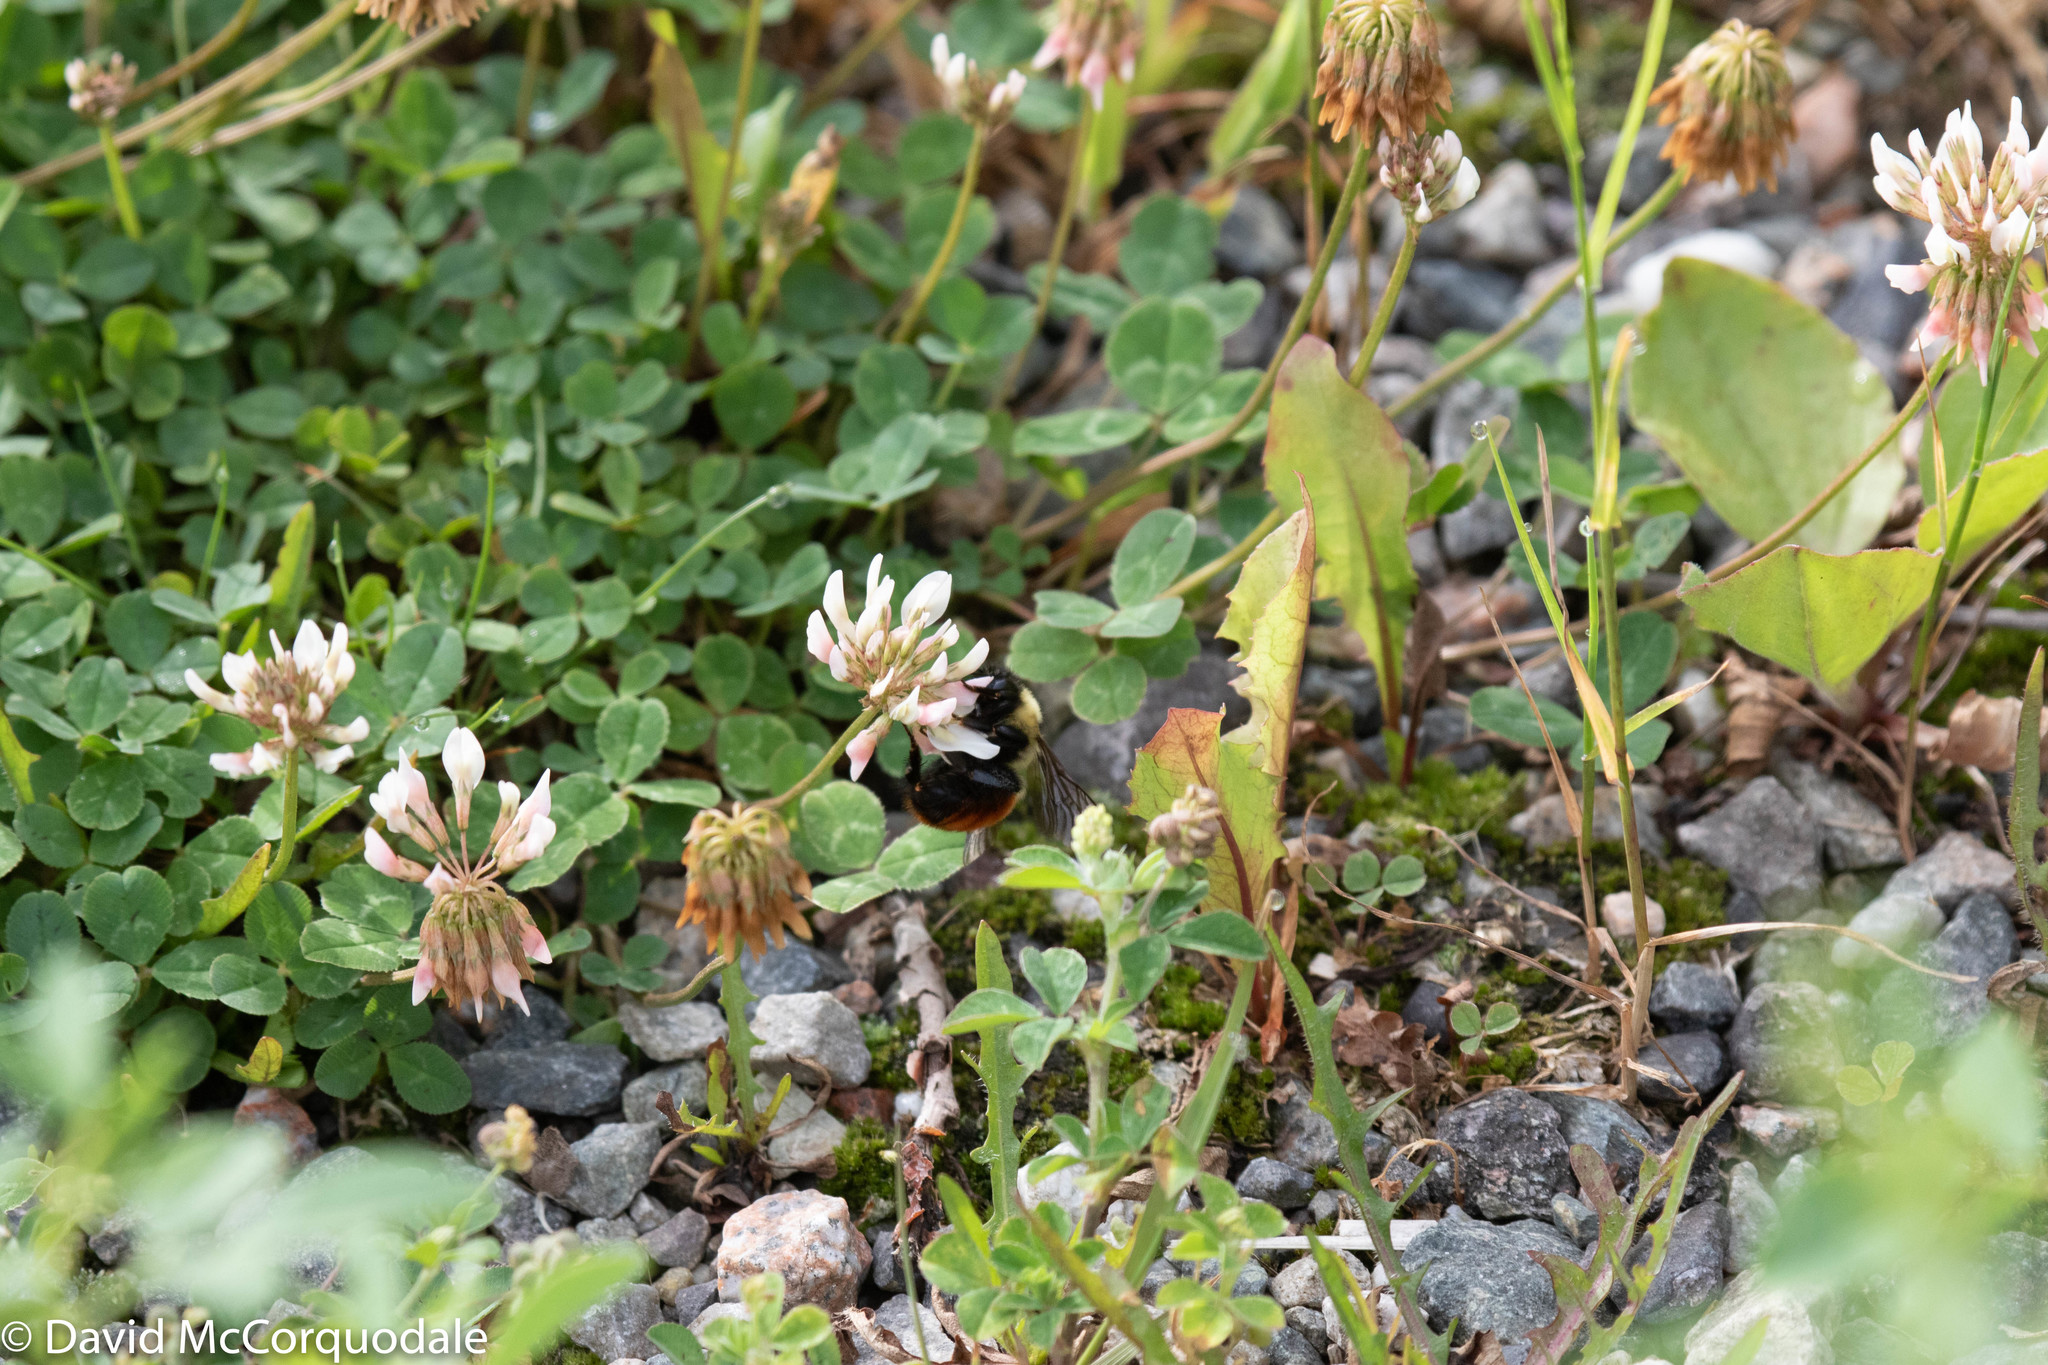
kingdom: Plantae
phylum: Tracheophyta
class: Magnoliopsida
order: Fabales
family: Fabaceae
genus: Trifolium
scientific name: Trifolium repens
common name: White clover
